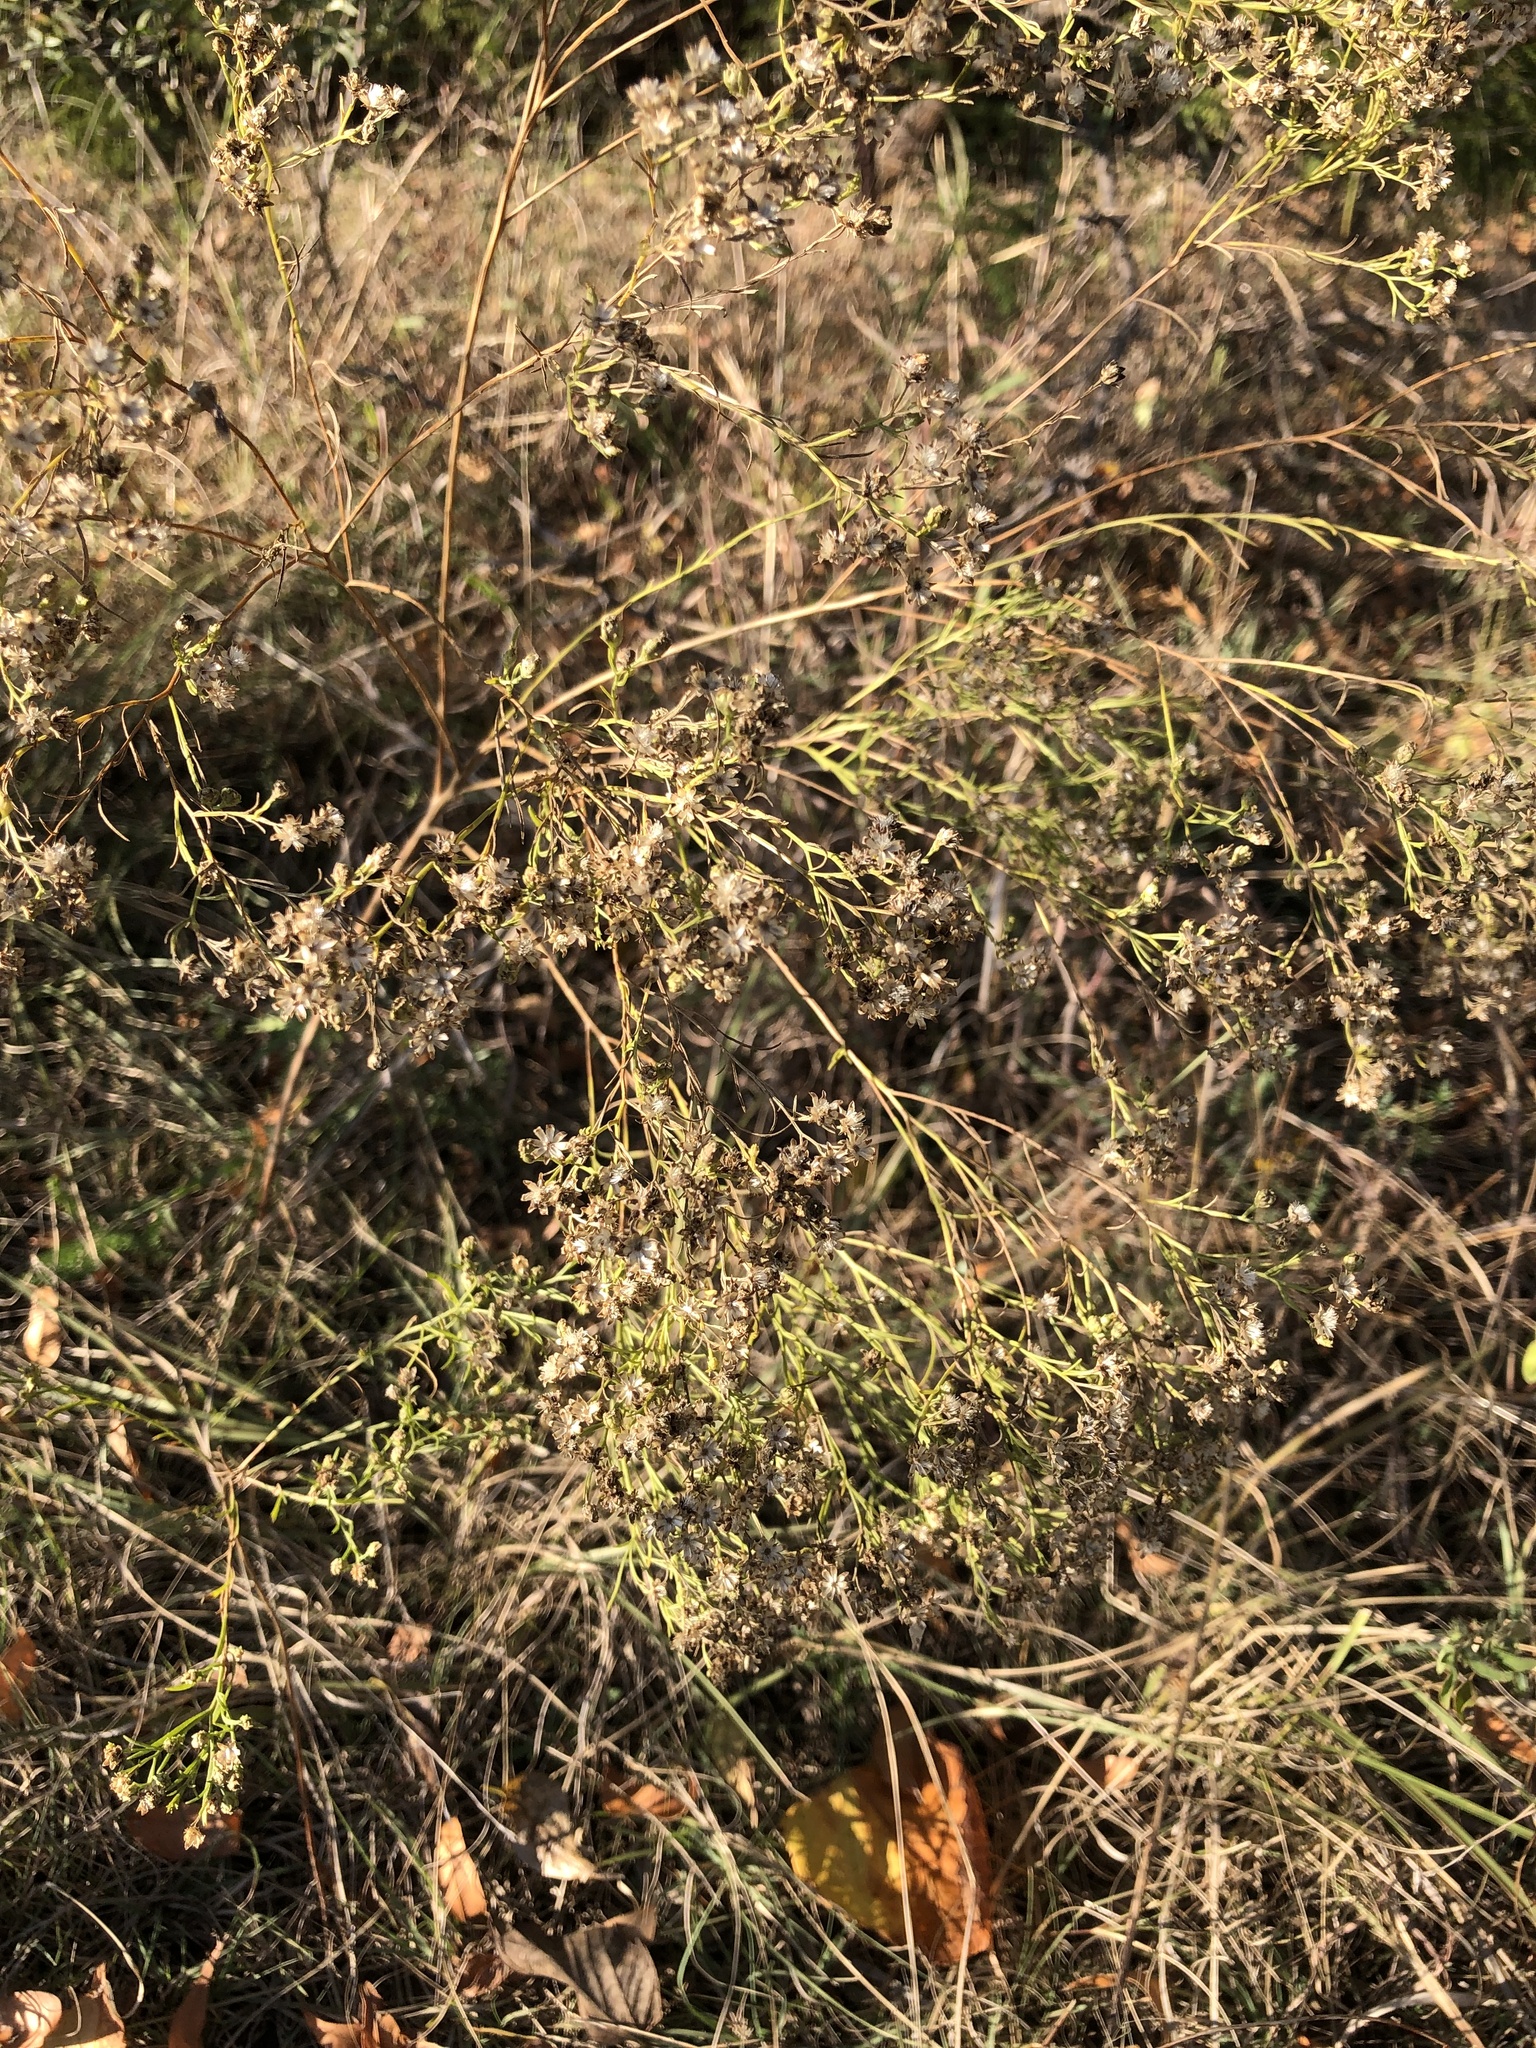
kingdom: Plantae
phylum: Tracheophyta
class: Magnoliopsida
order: Asterales
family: Asteraceae
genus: Amphiachyris
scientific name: Amphiachyris dracunculoides
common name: Broomweed
